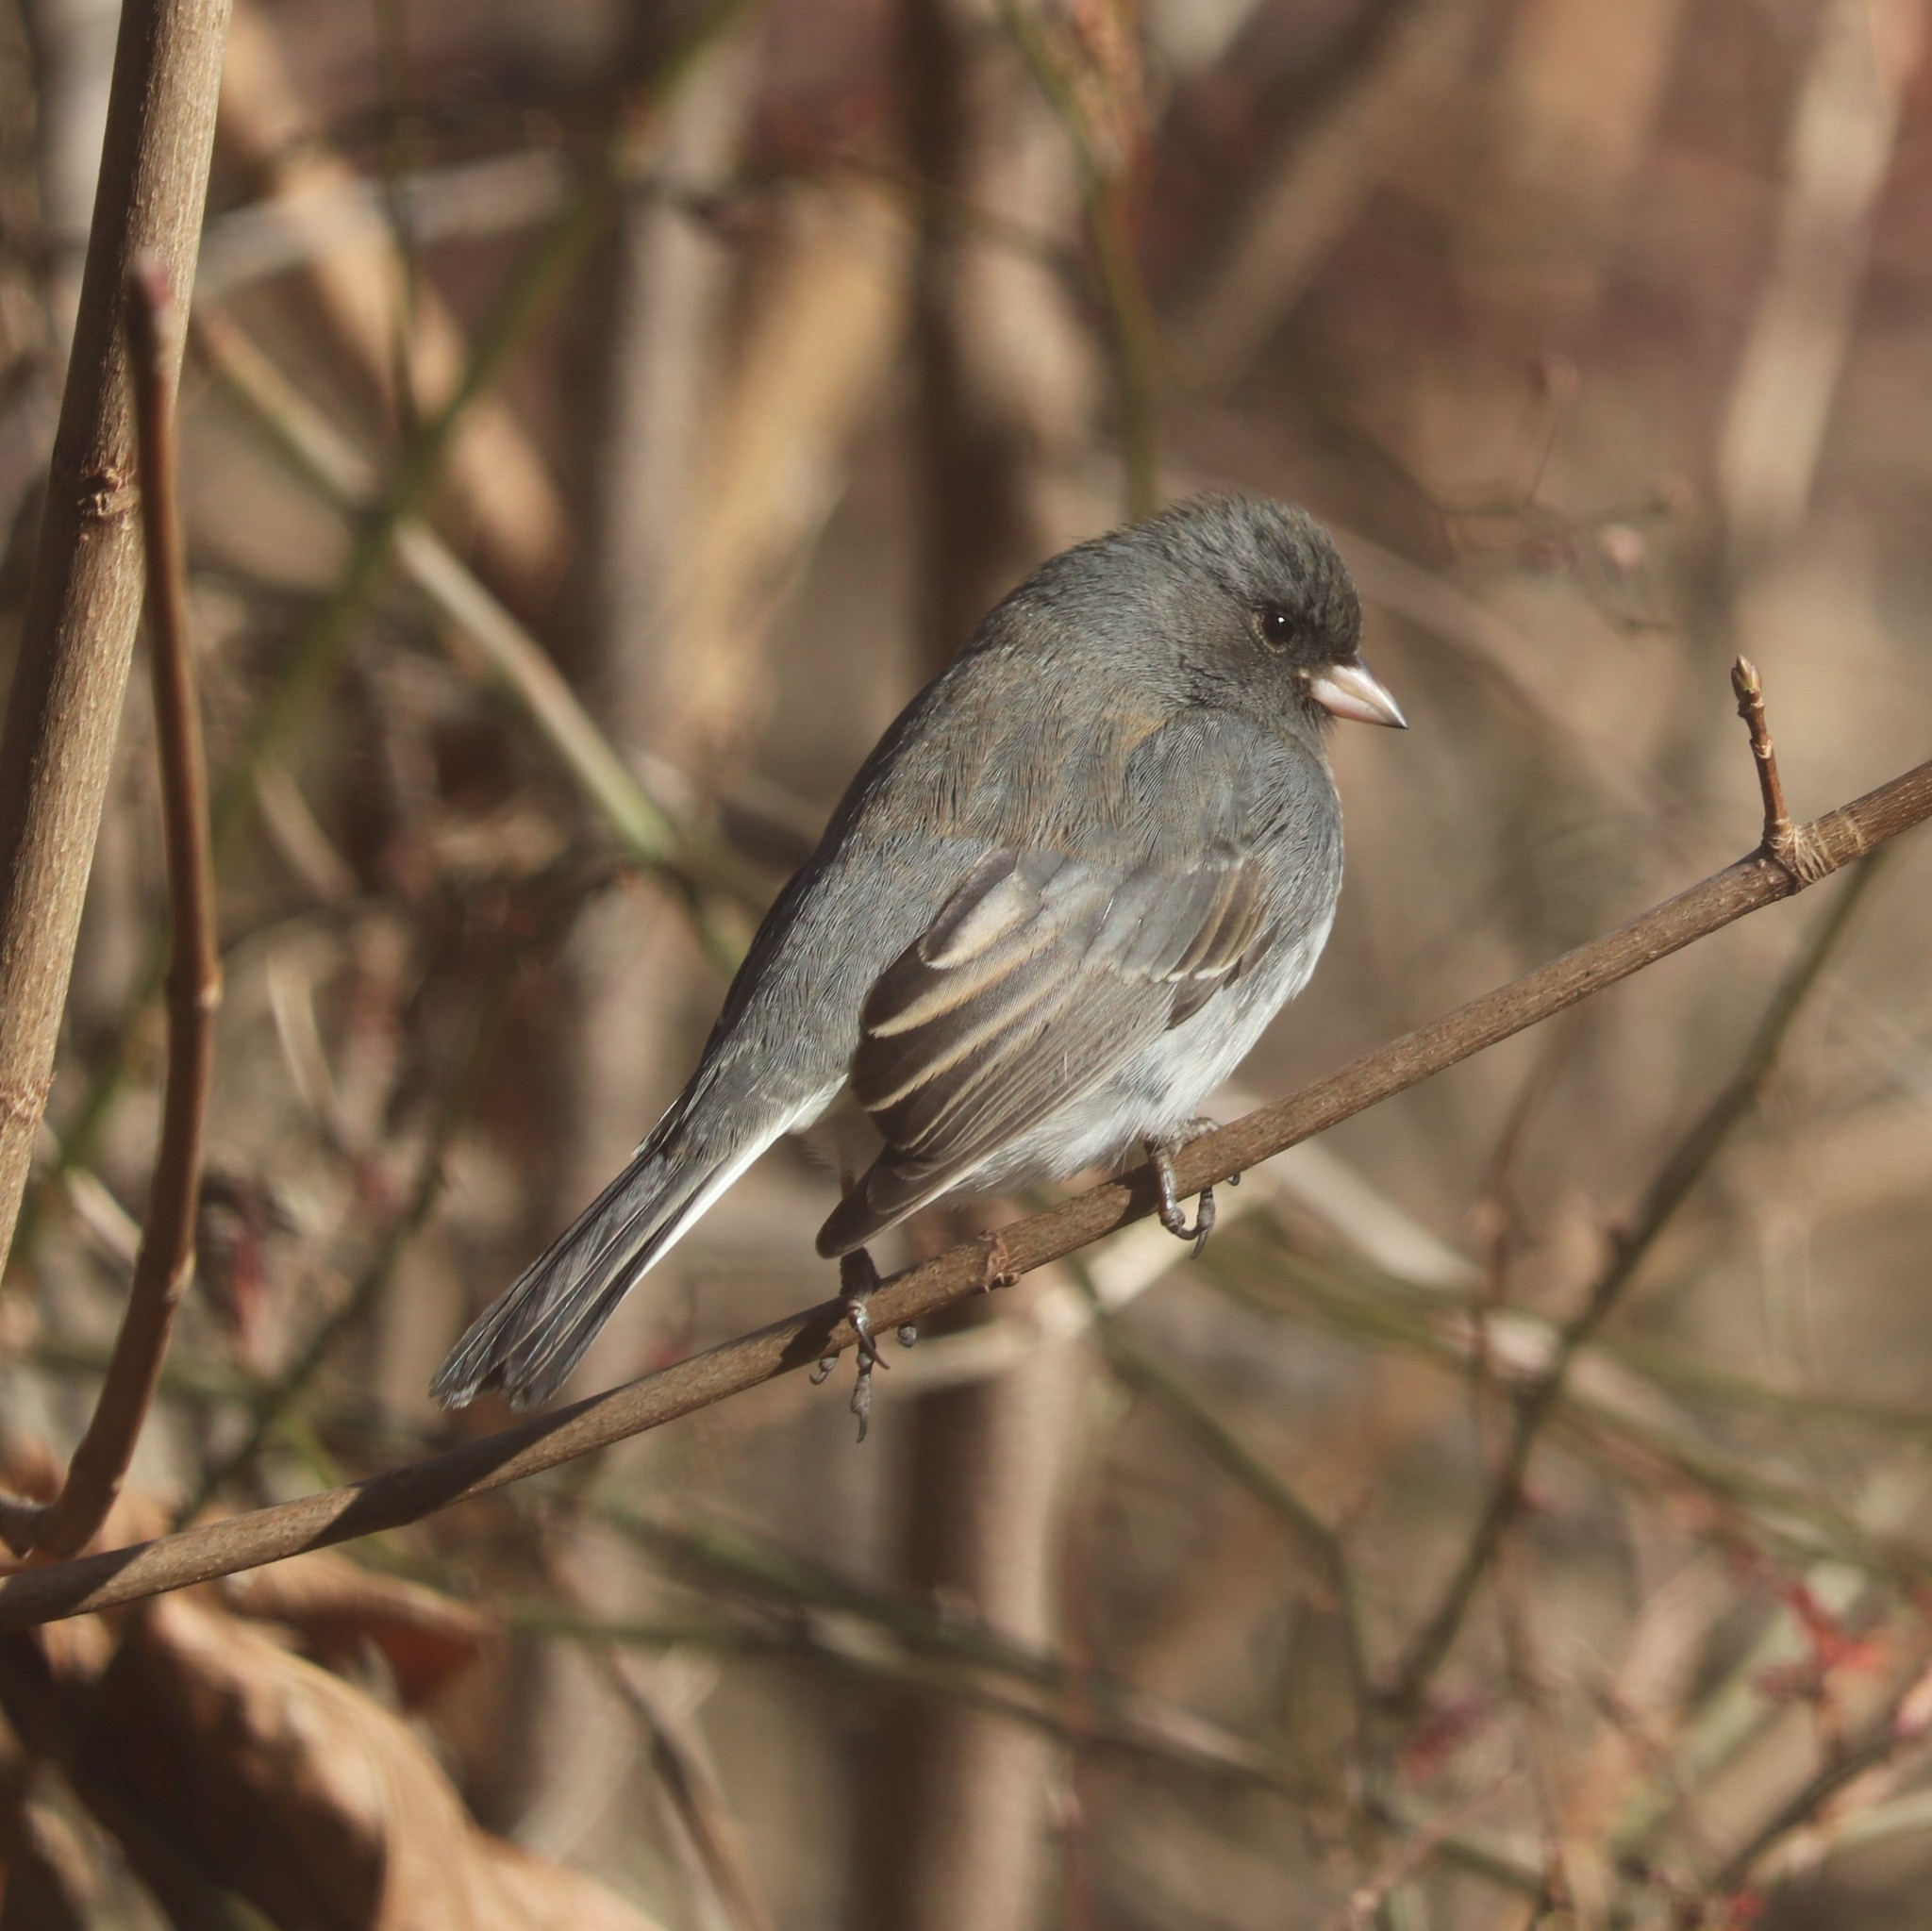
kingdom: Animalia
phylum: Chordata
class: Aves
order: Passeriformes
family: Passerellidae
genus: Junco
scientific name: Junco hyemalis
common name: Dark-eyed junco
